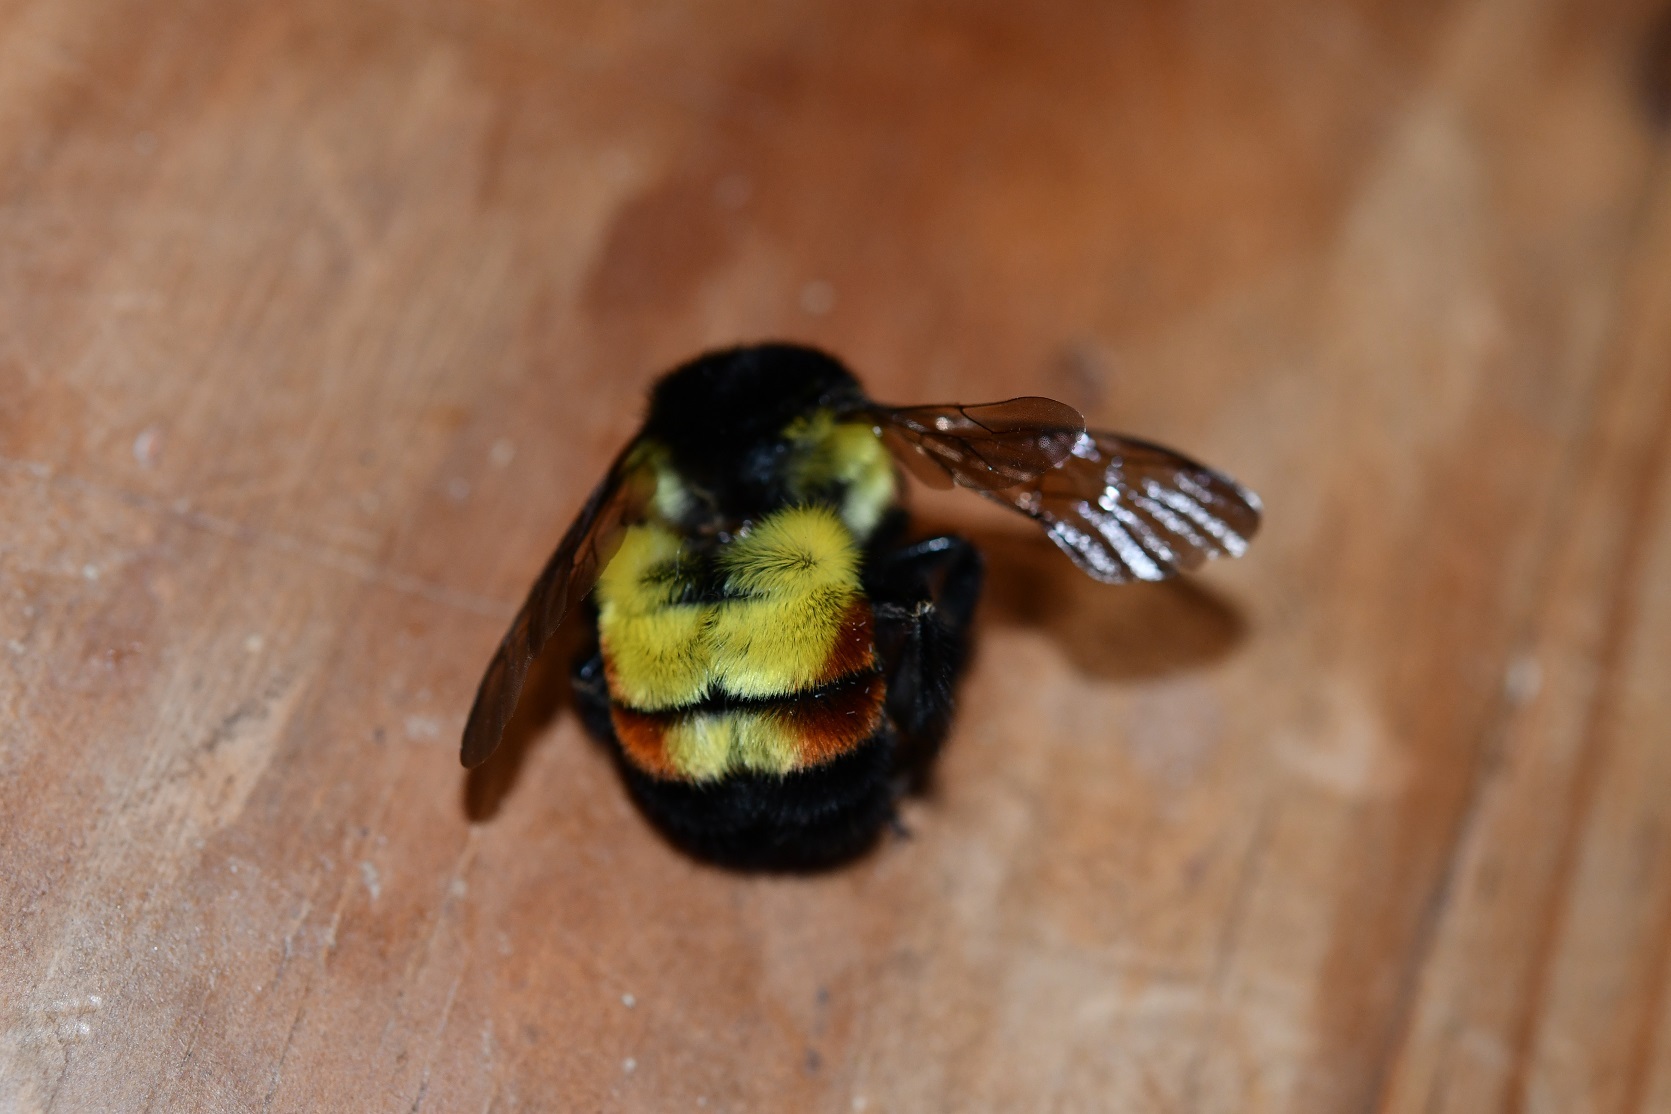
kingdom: Animalia
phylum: Arthropoda
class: Insecta
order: Hymenoptera
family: Apidae
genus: Bombus
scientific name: Bombus ephippiatus
